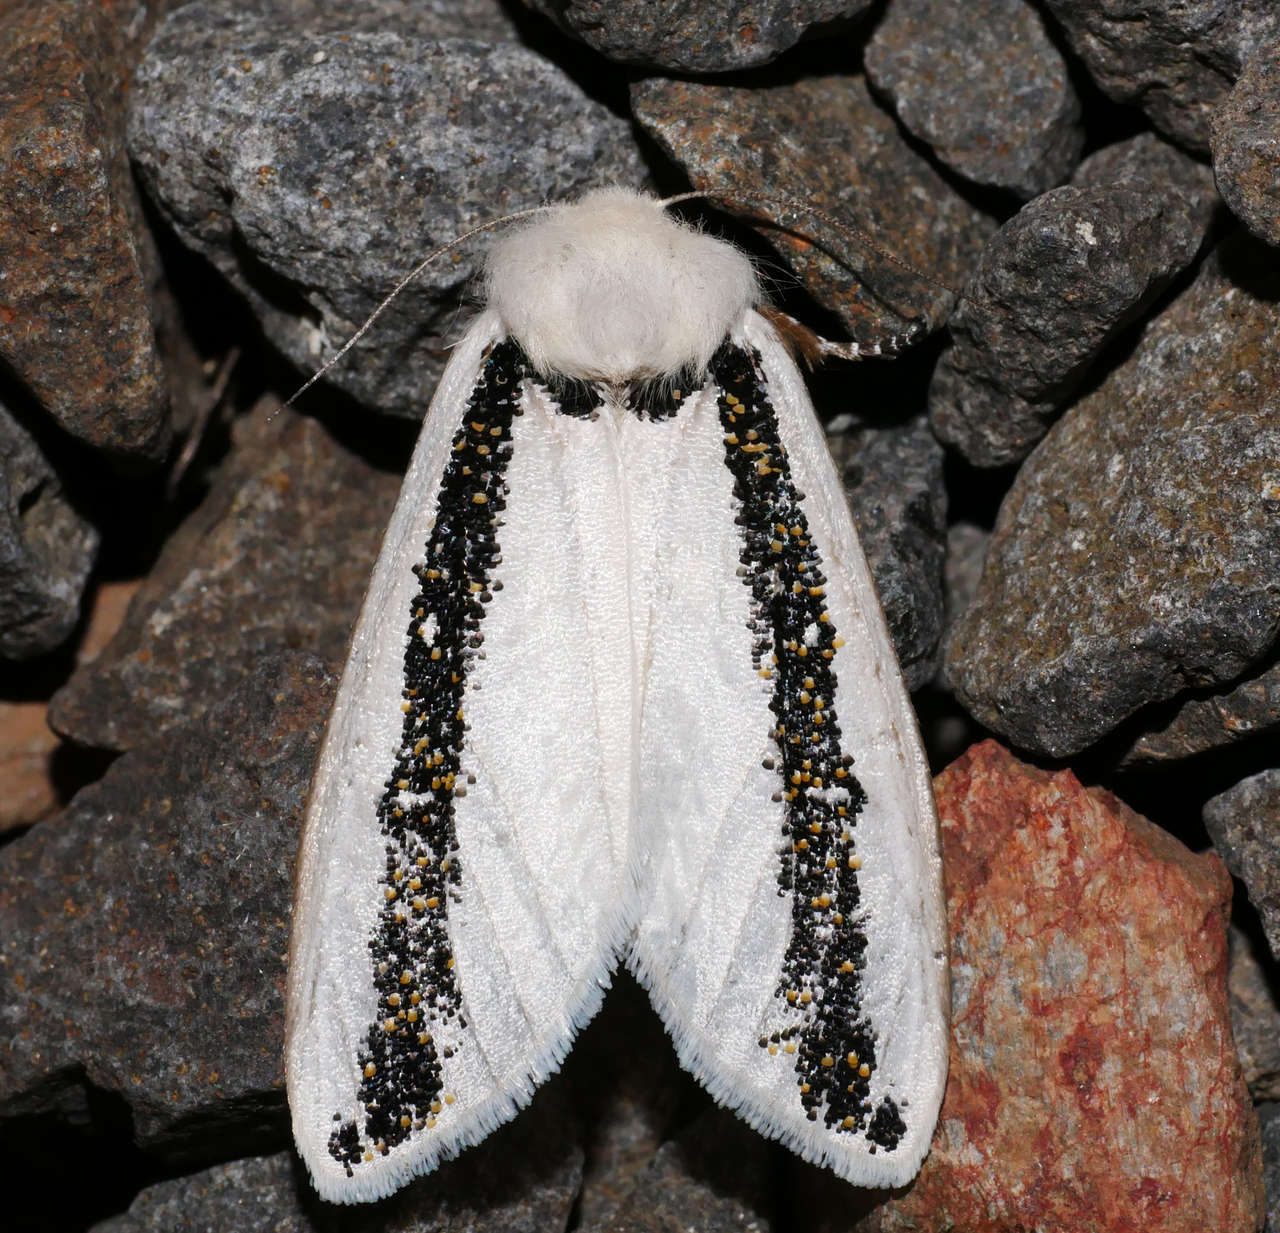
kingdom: Animalia
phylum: Arthropoda
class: Insecta
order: Lepidoptera
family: Oenosandridae
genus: Oenosandra
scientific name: Oenosandra boisduvalii
